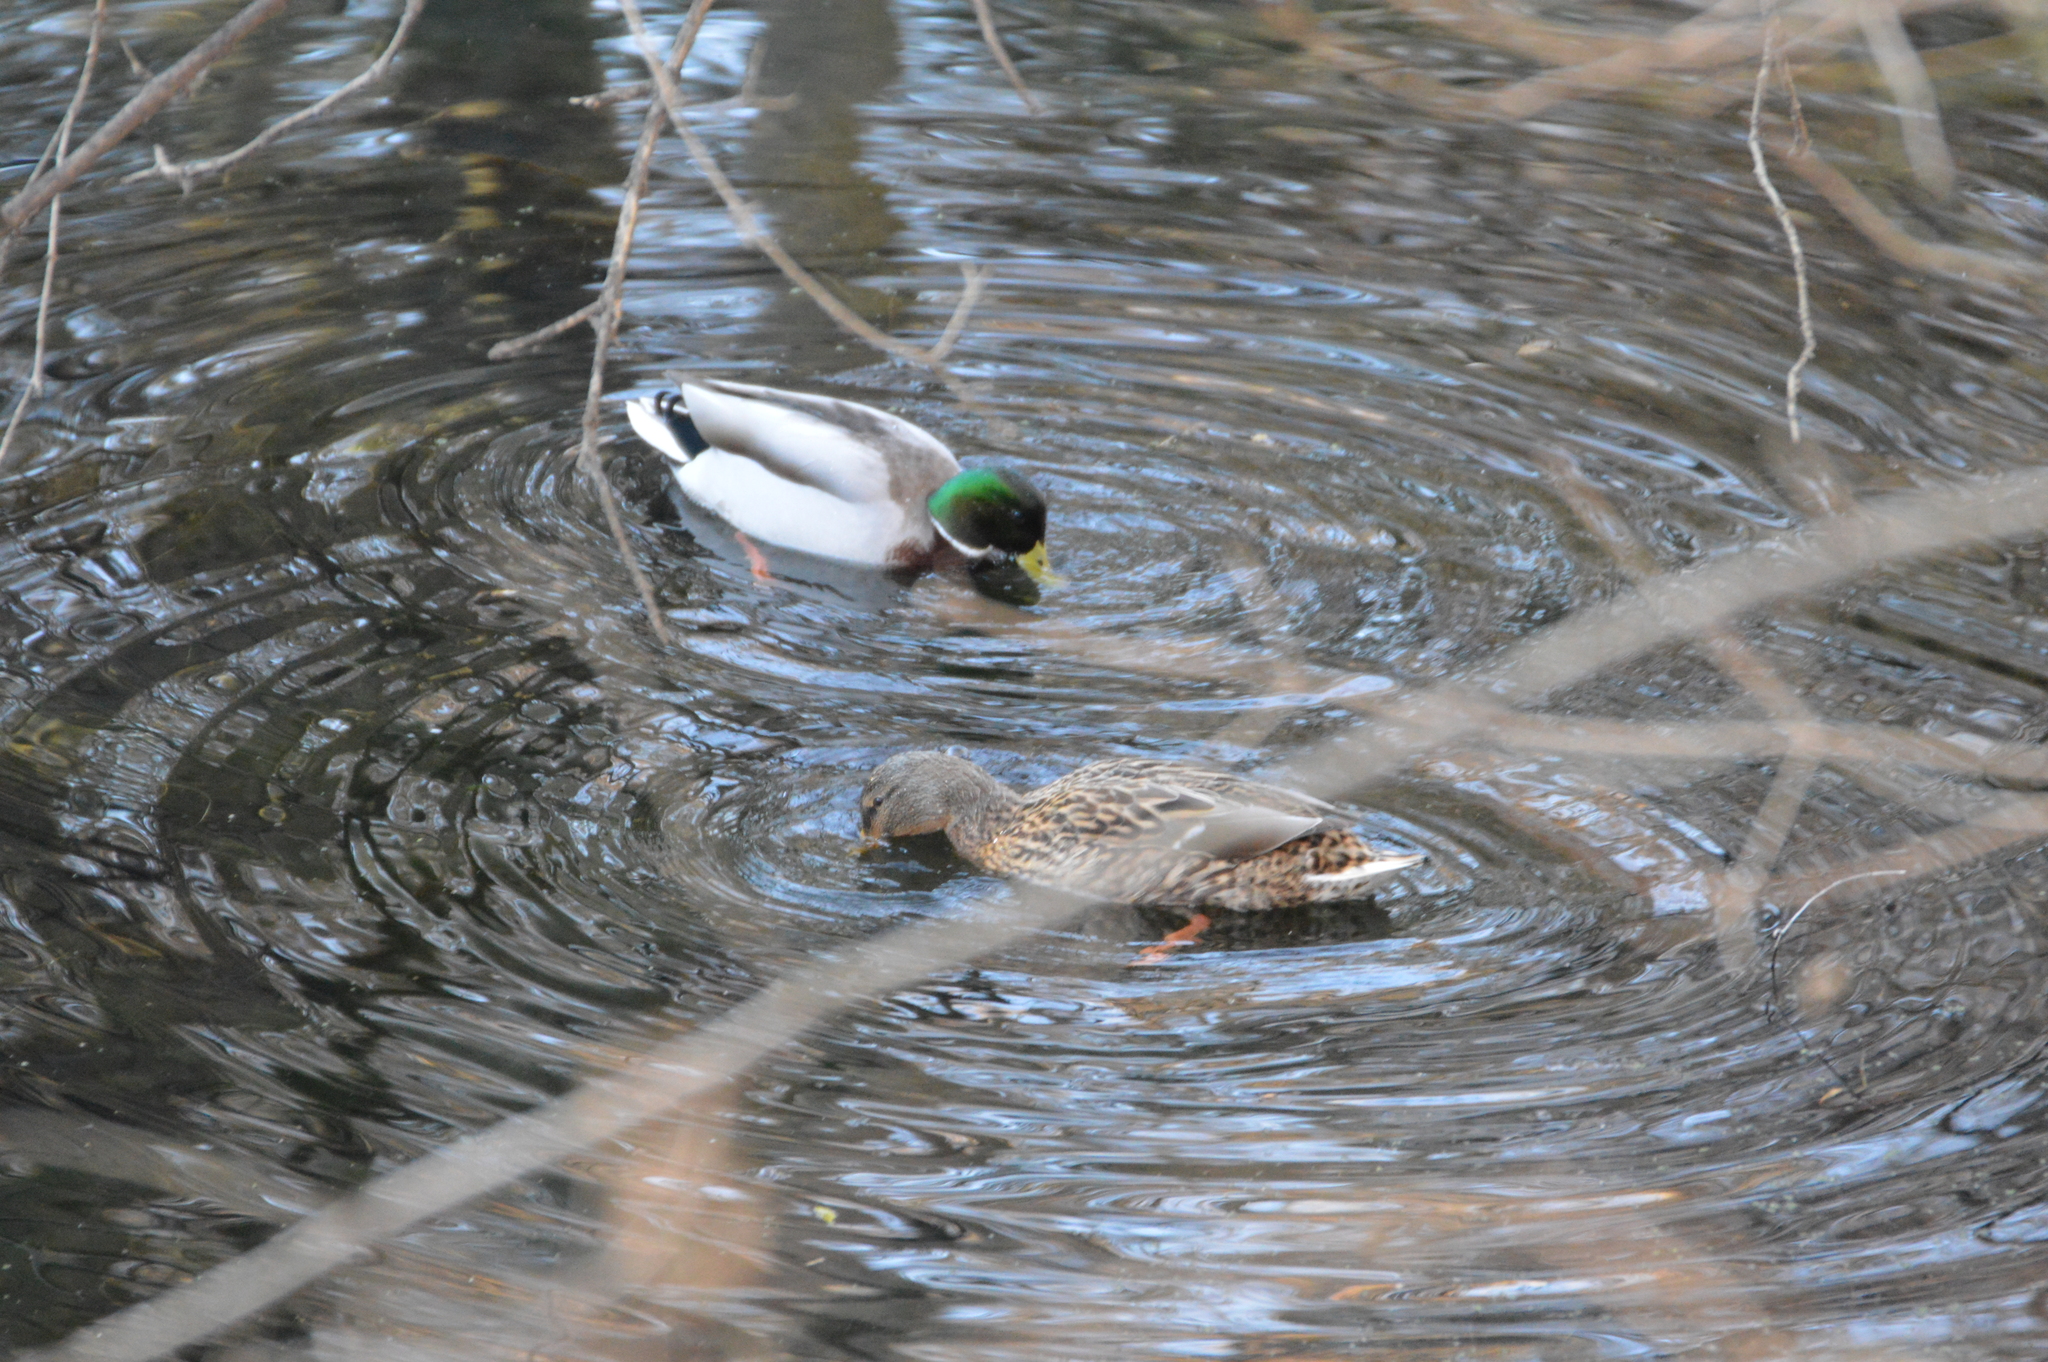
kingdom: Animalia
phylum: Chordata
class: Aves
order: Anseriformes
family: Anatidae
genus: Anas
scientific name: Anas platyrhynchos
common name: Mallard
